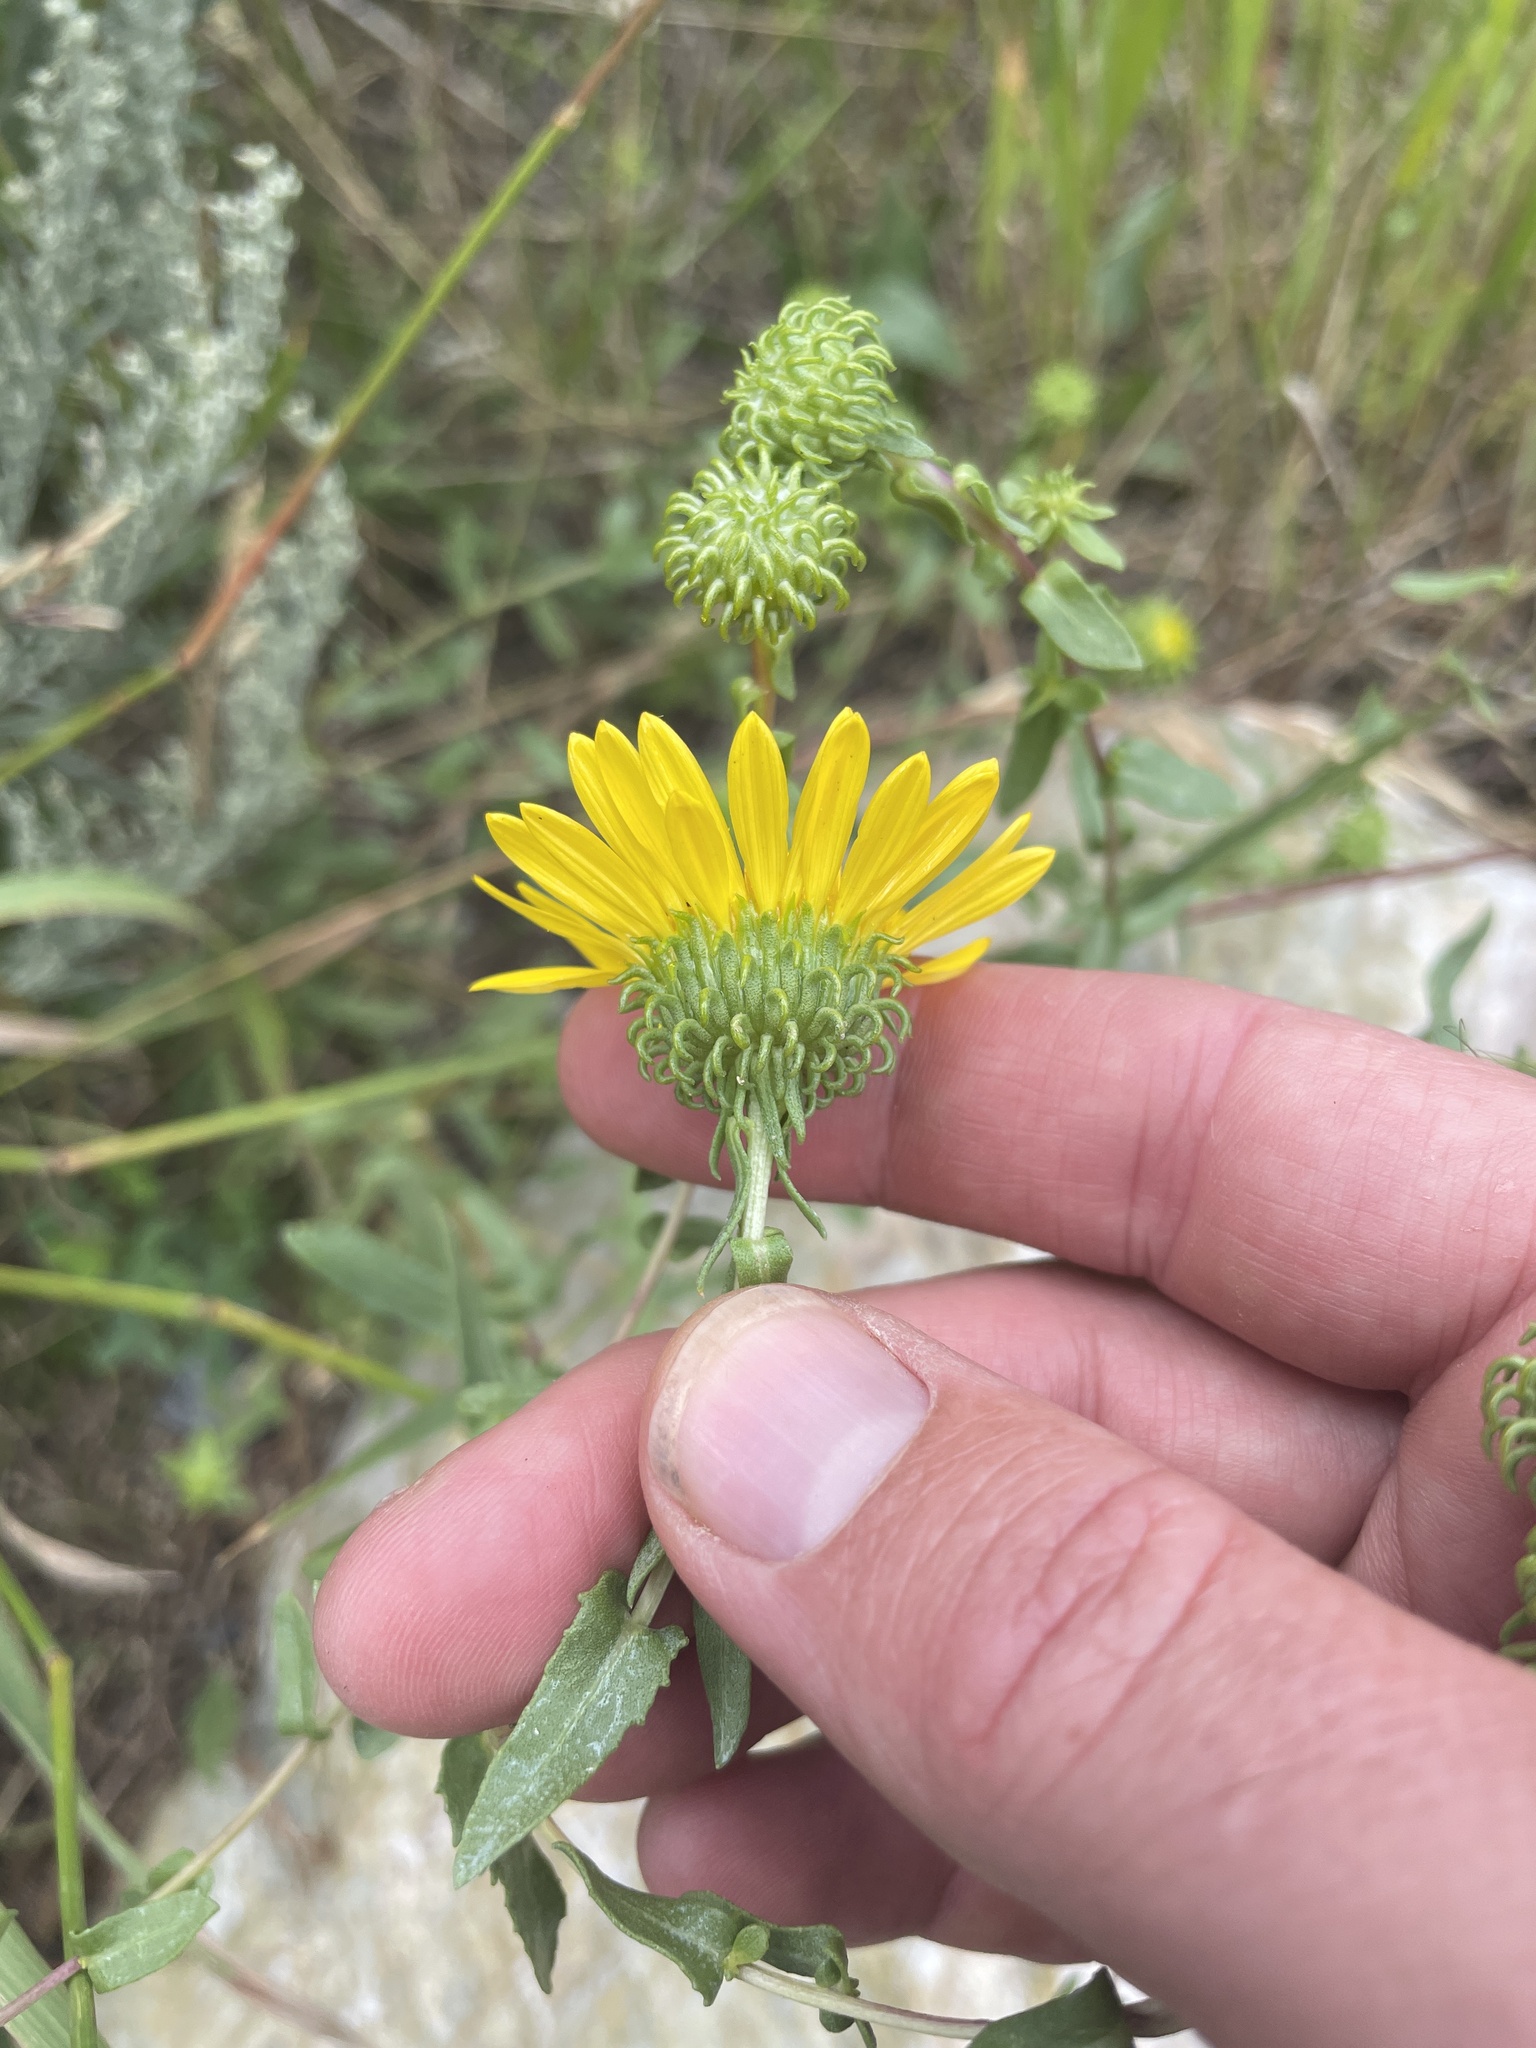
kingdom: Plantae
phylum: Tracheophyta
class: Magnoliopsida
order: Asterales
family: Asteraceae
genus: Grindelia
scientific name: Grindelia squarrosa
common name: Curly-cup gumweed
